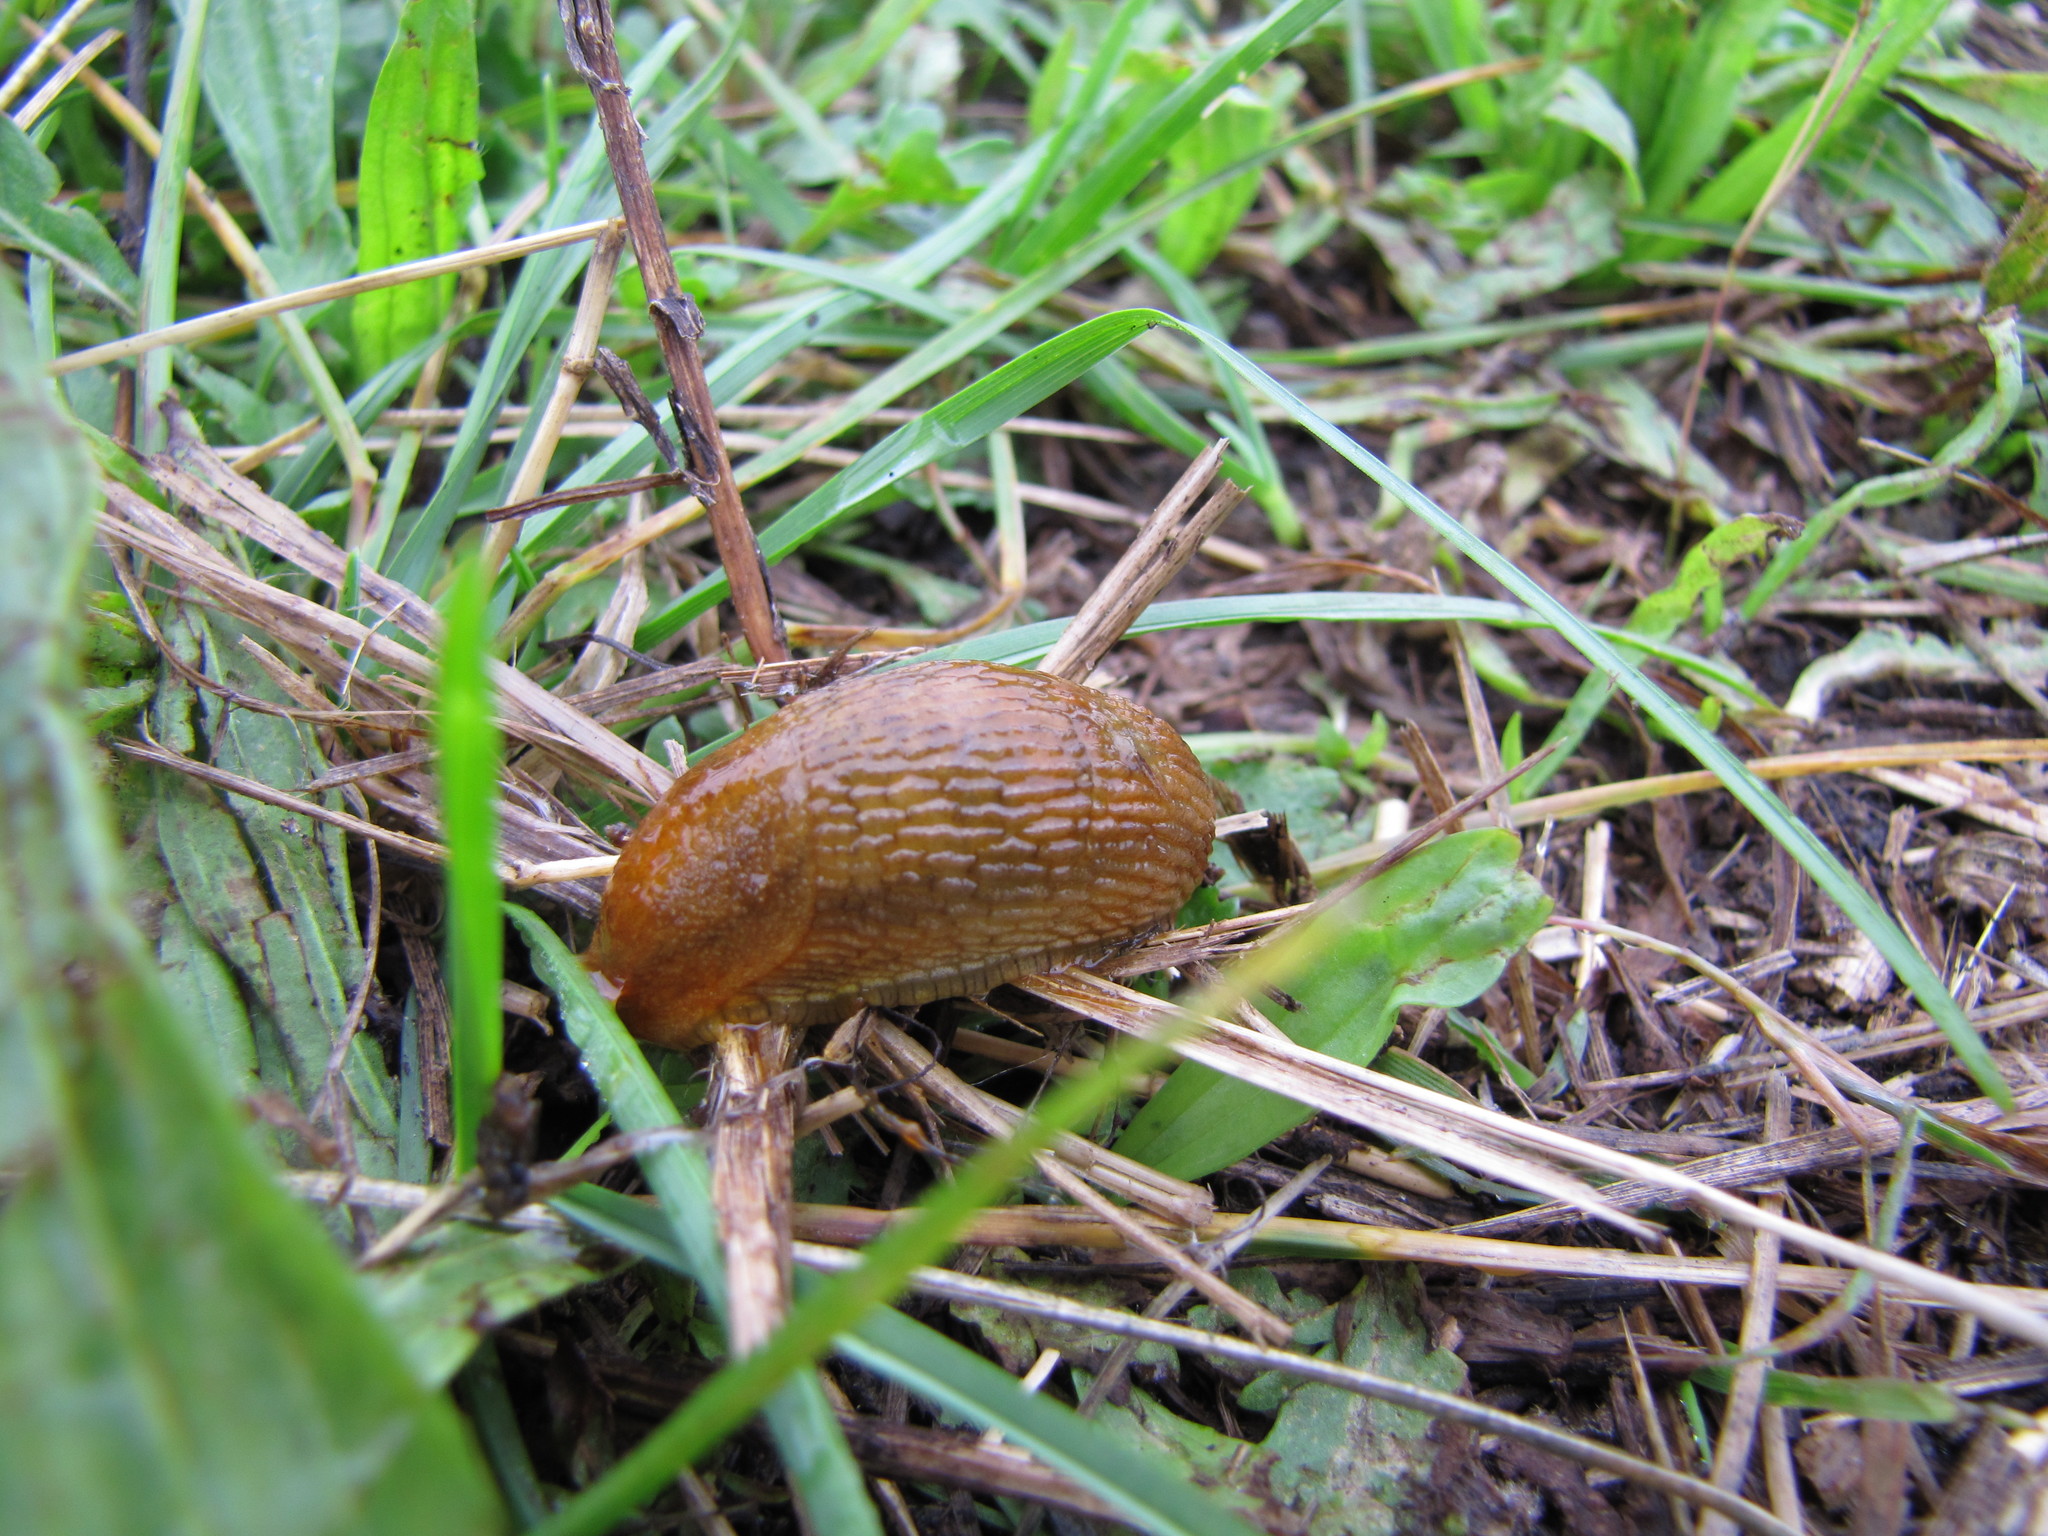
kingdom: Animalia
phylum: Mollusca
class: Gastropoda
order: Stylommatophora
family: Arionidae
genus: Arion
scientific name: Arion subfuscus
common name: Dusky arion
